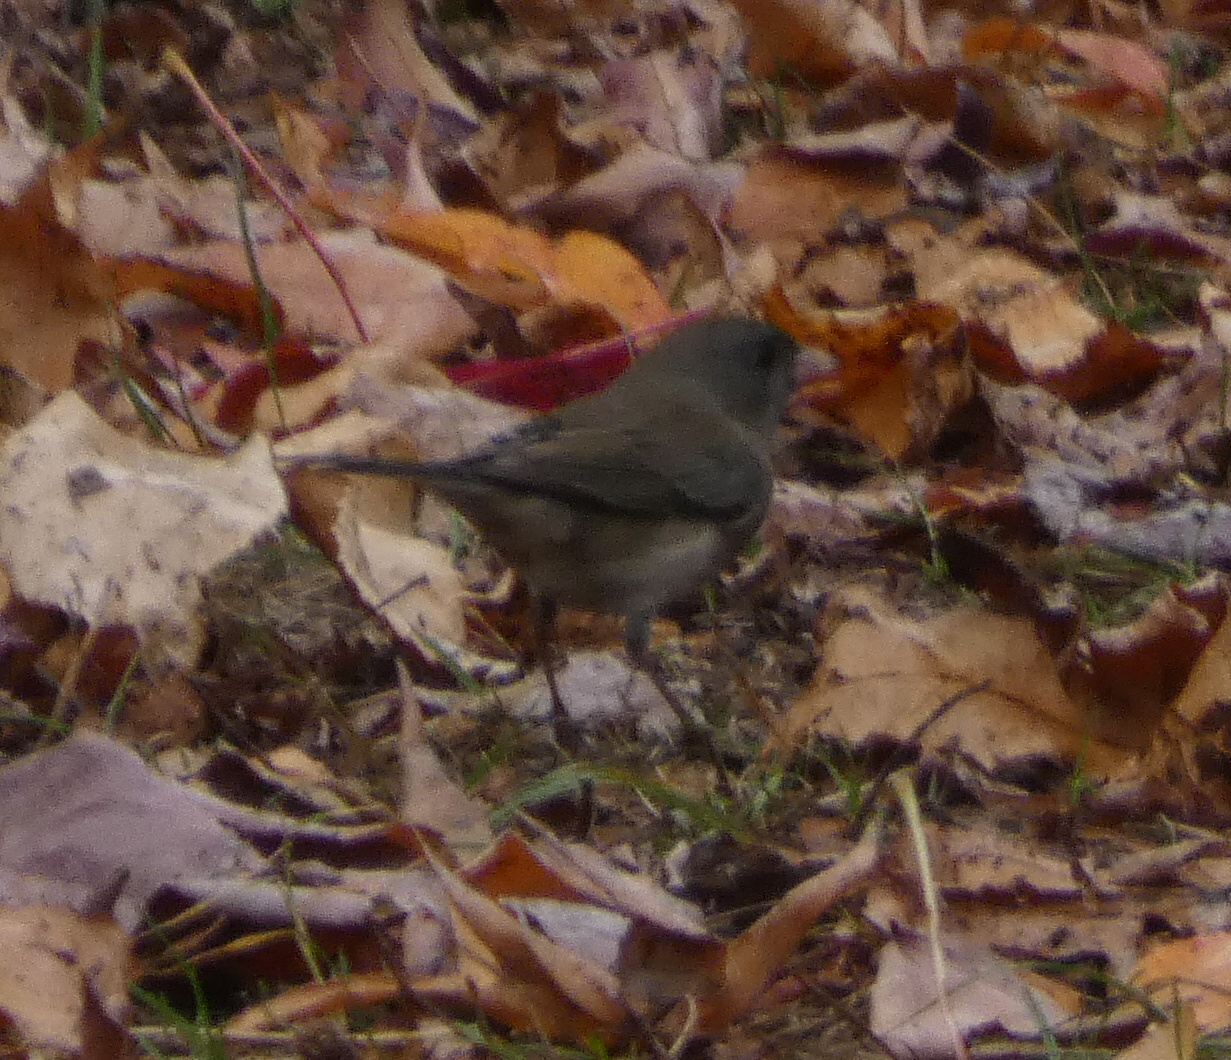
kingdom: Animalia
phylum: Chordata
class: Aves
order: Passeriformes
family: Passerellidae
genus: Junco
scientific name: Junco hyemalis
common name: Dark-eyed junco
